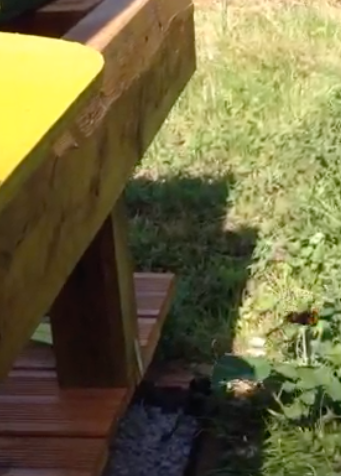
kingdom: Animalia
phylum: Arthropoda
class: Insecta
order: Hymenoptera
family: Vespidae
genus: Vespa
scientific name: Vespa velutina
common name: Asian hornet
